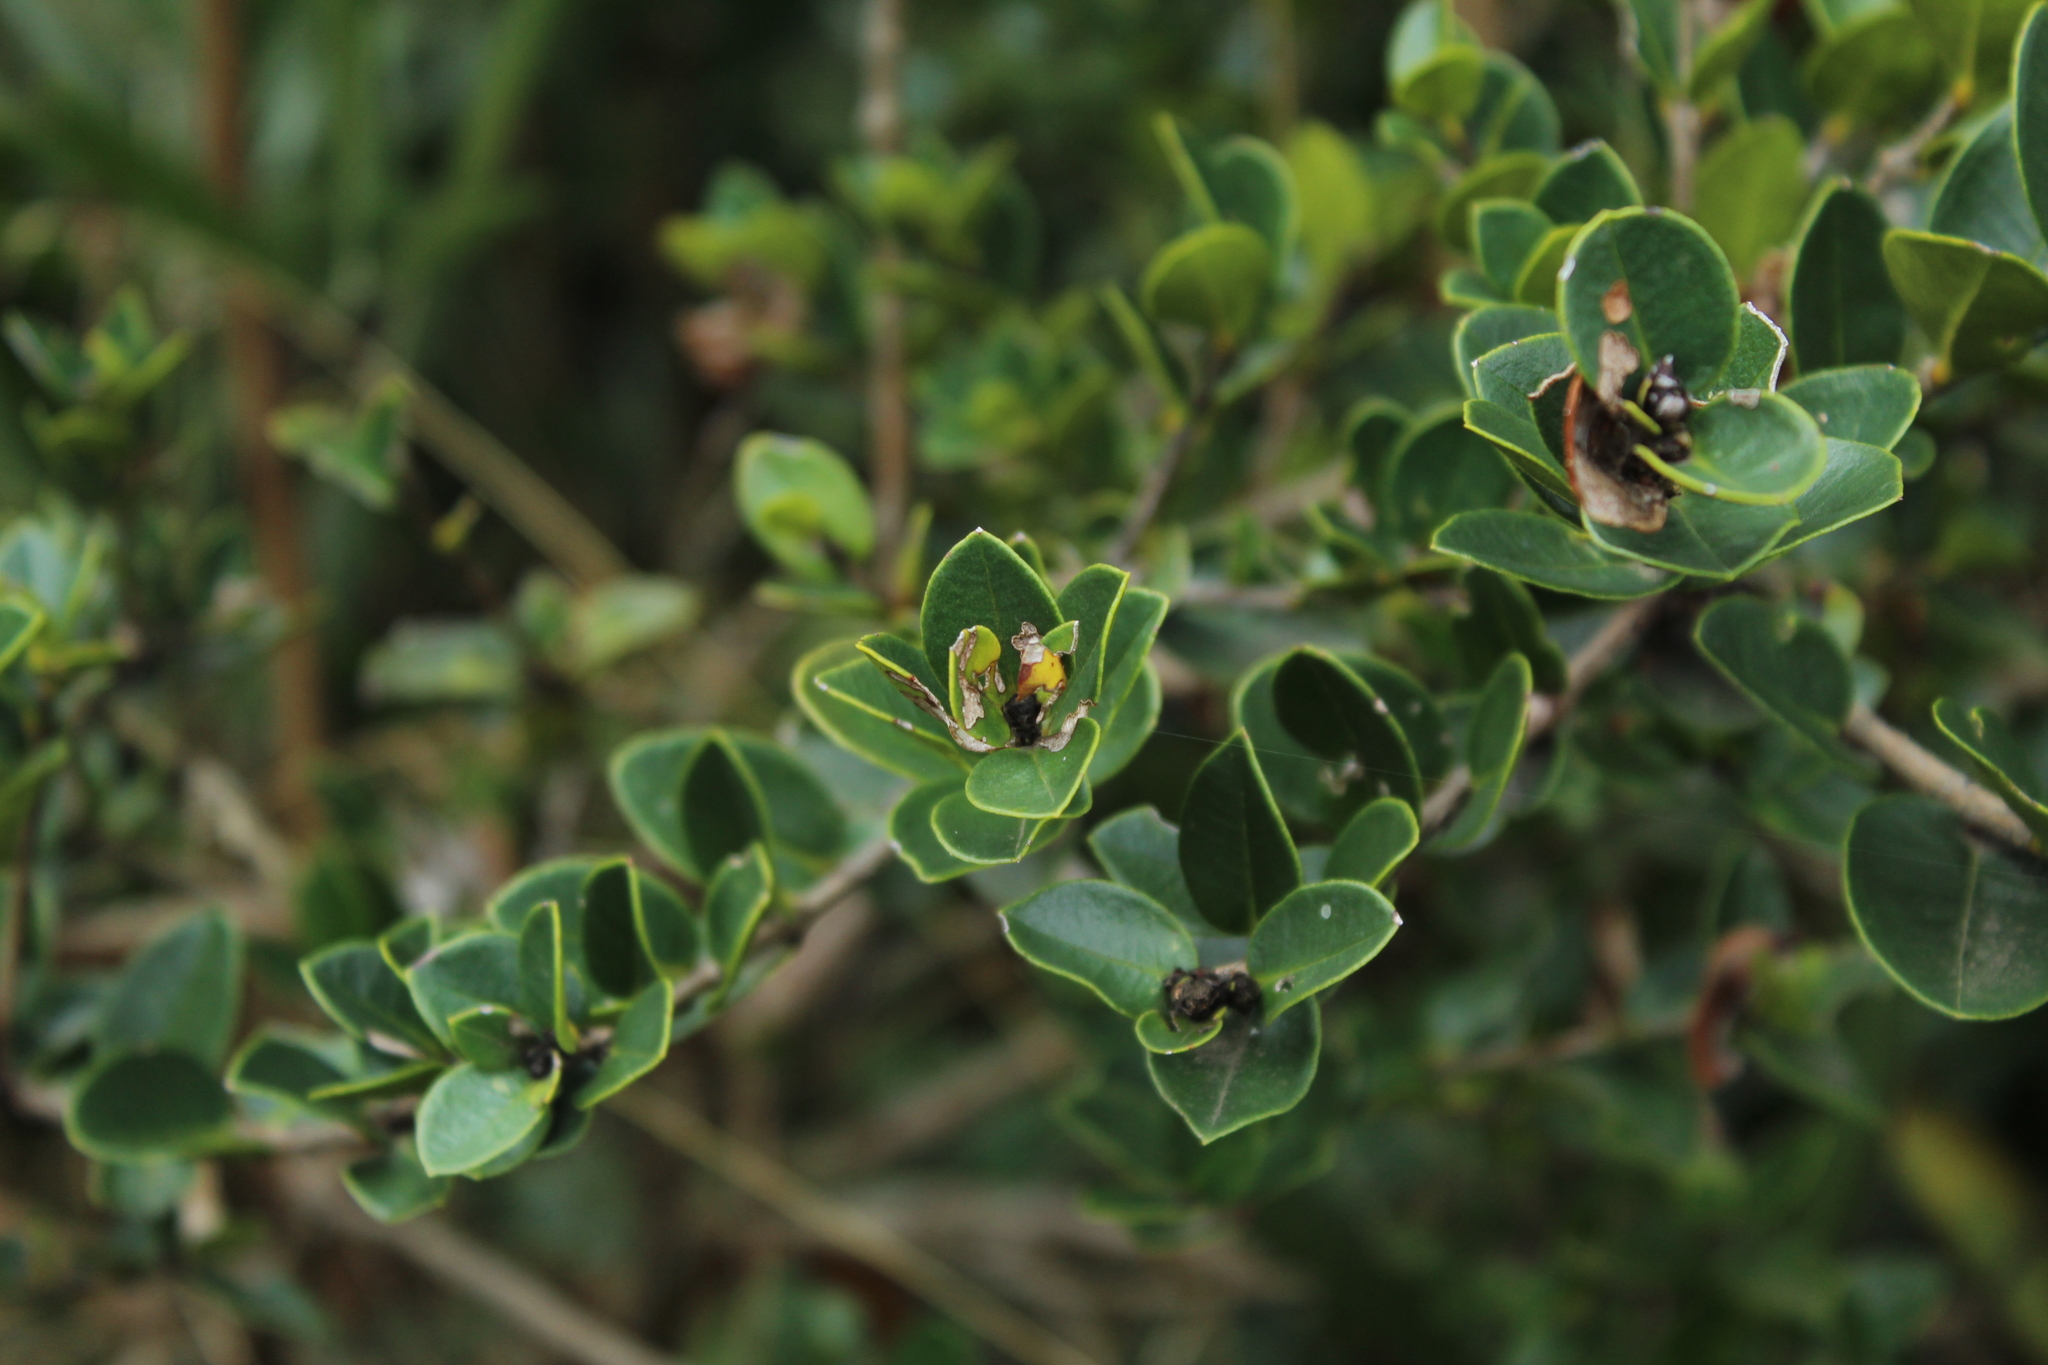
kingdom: Plantae
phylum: Tracheophyta
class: Magnoliopsida
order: Myrtales
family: Myrtaceae
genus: Myrcianthes
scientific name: Myrcianthes leucoxyla
